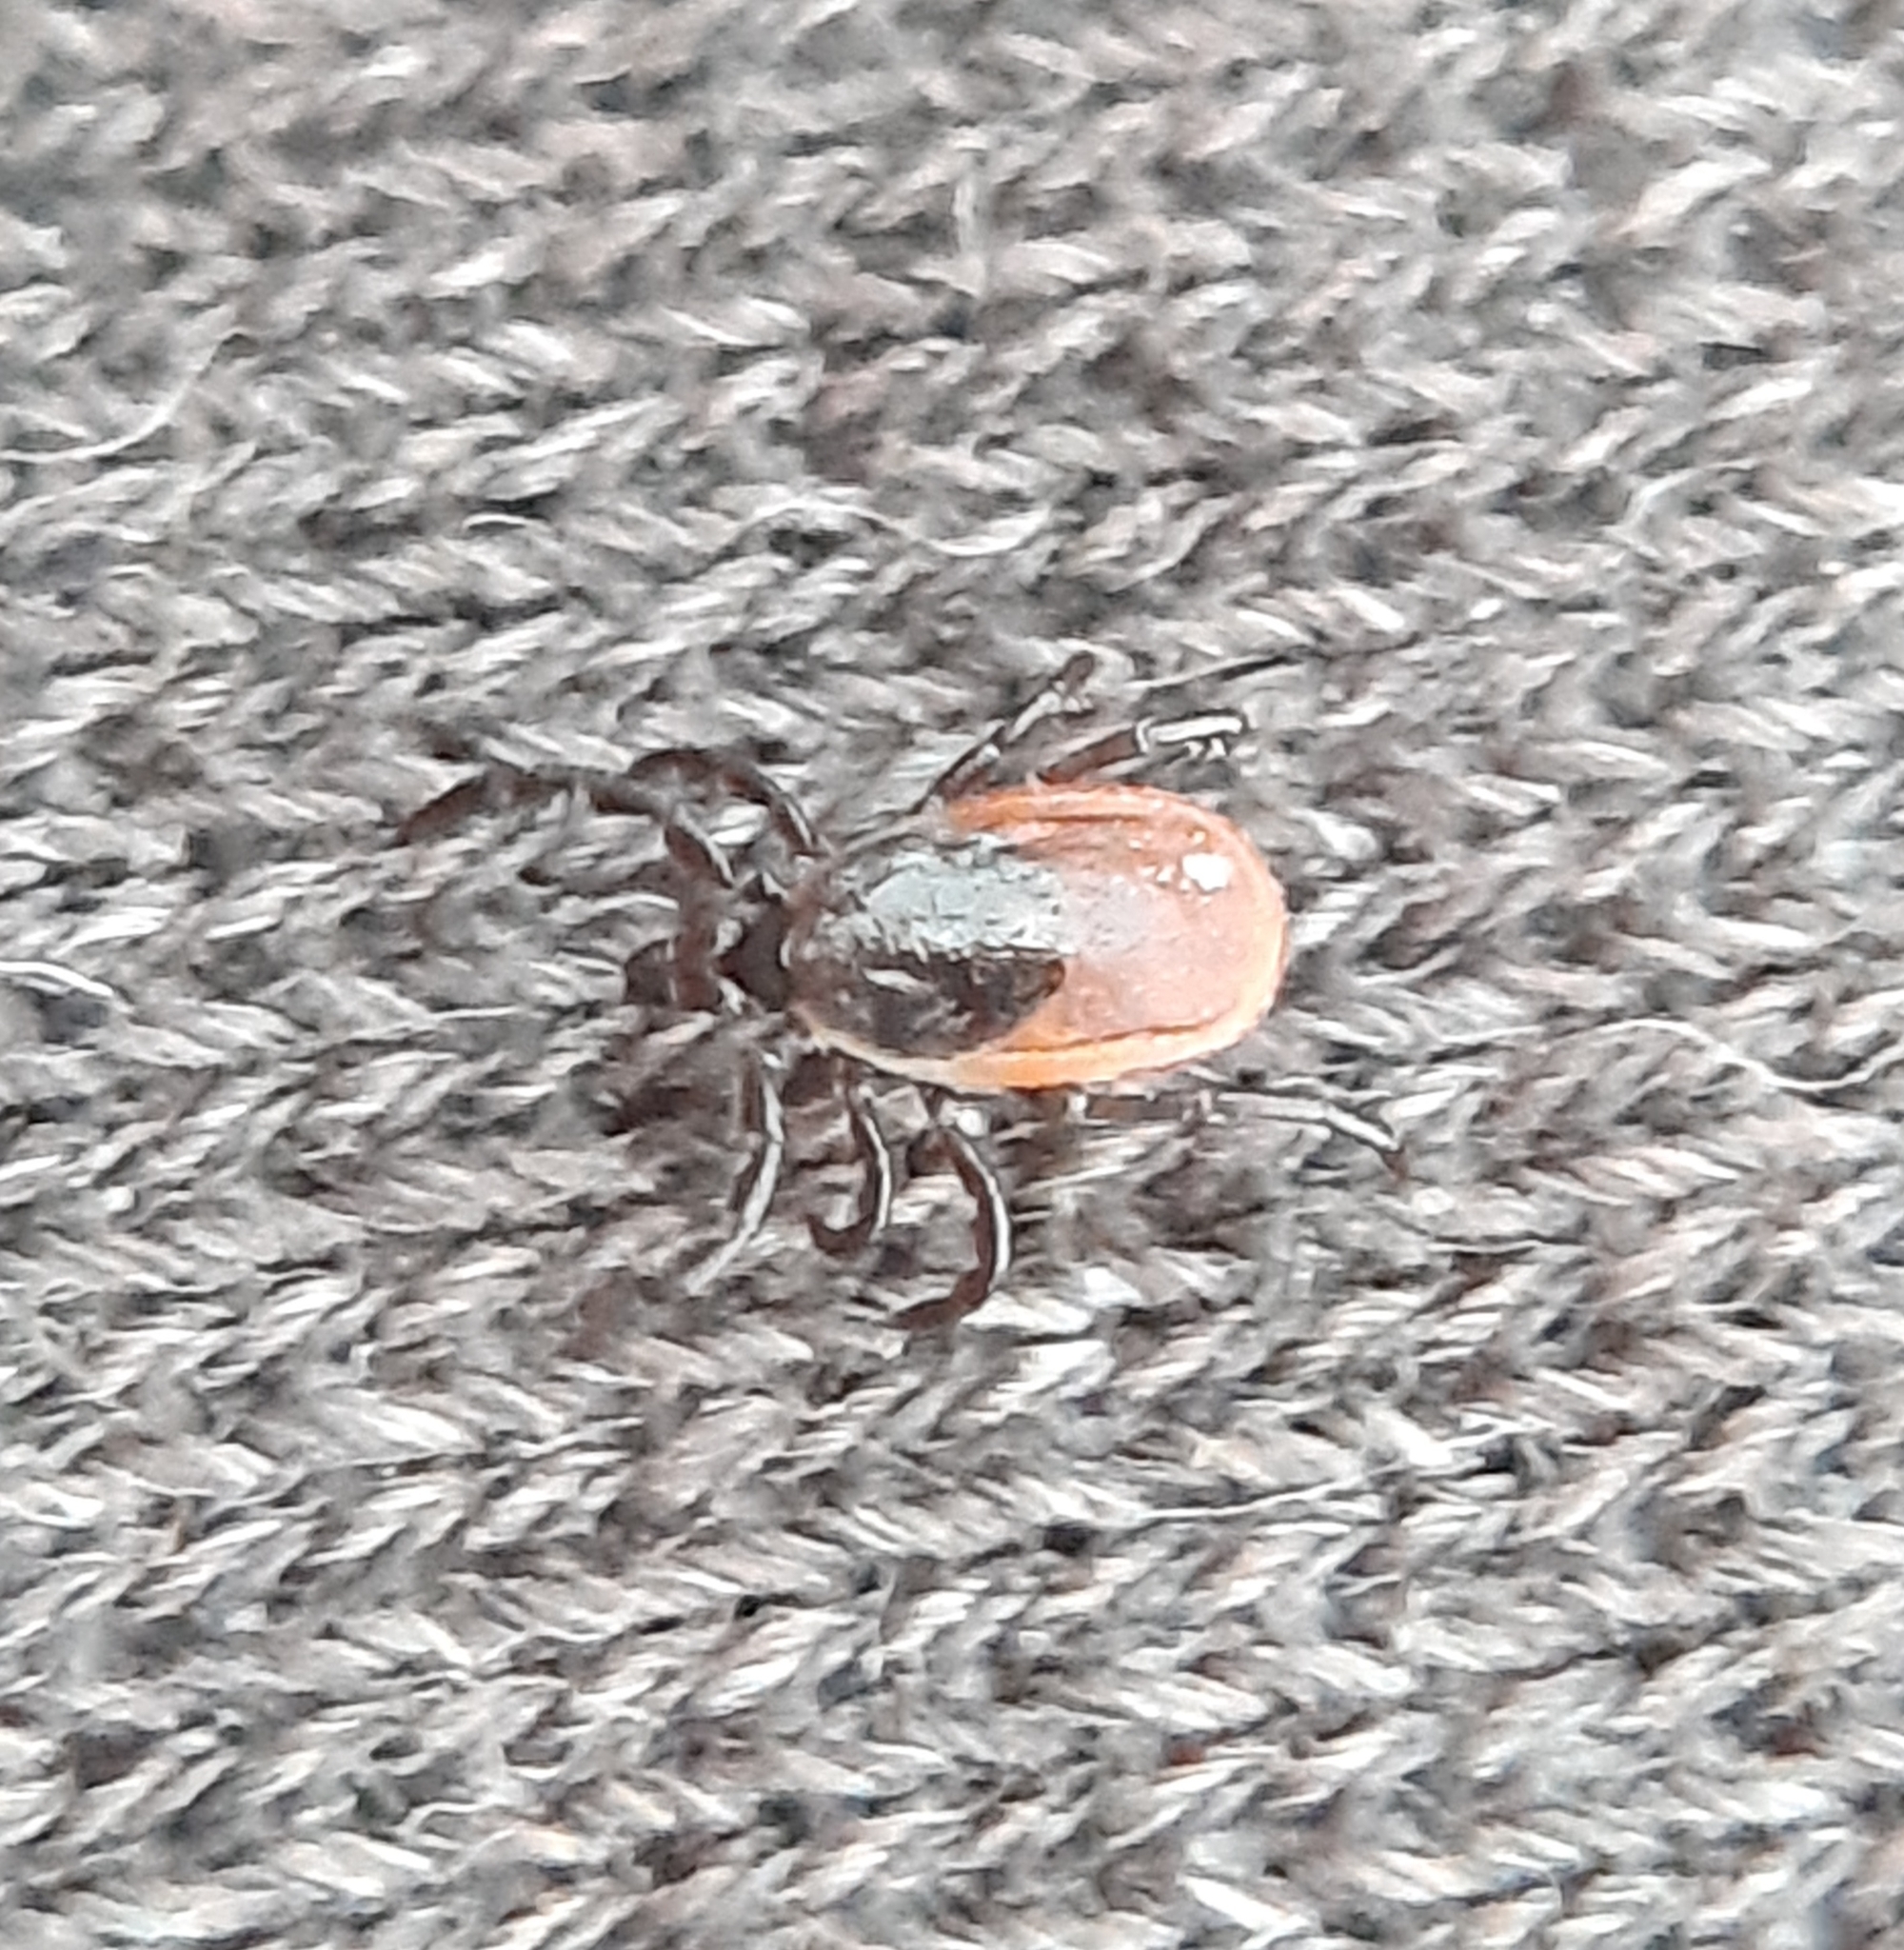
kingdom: Animalia
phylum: Arthropoda
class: Arachnida
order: Ixodida
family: Ixodidae
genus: Ixodes
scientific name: Ixodes scapularis
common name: Black legged tick
